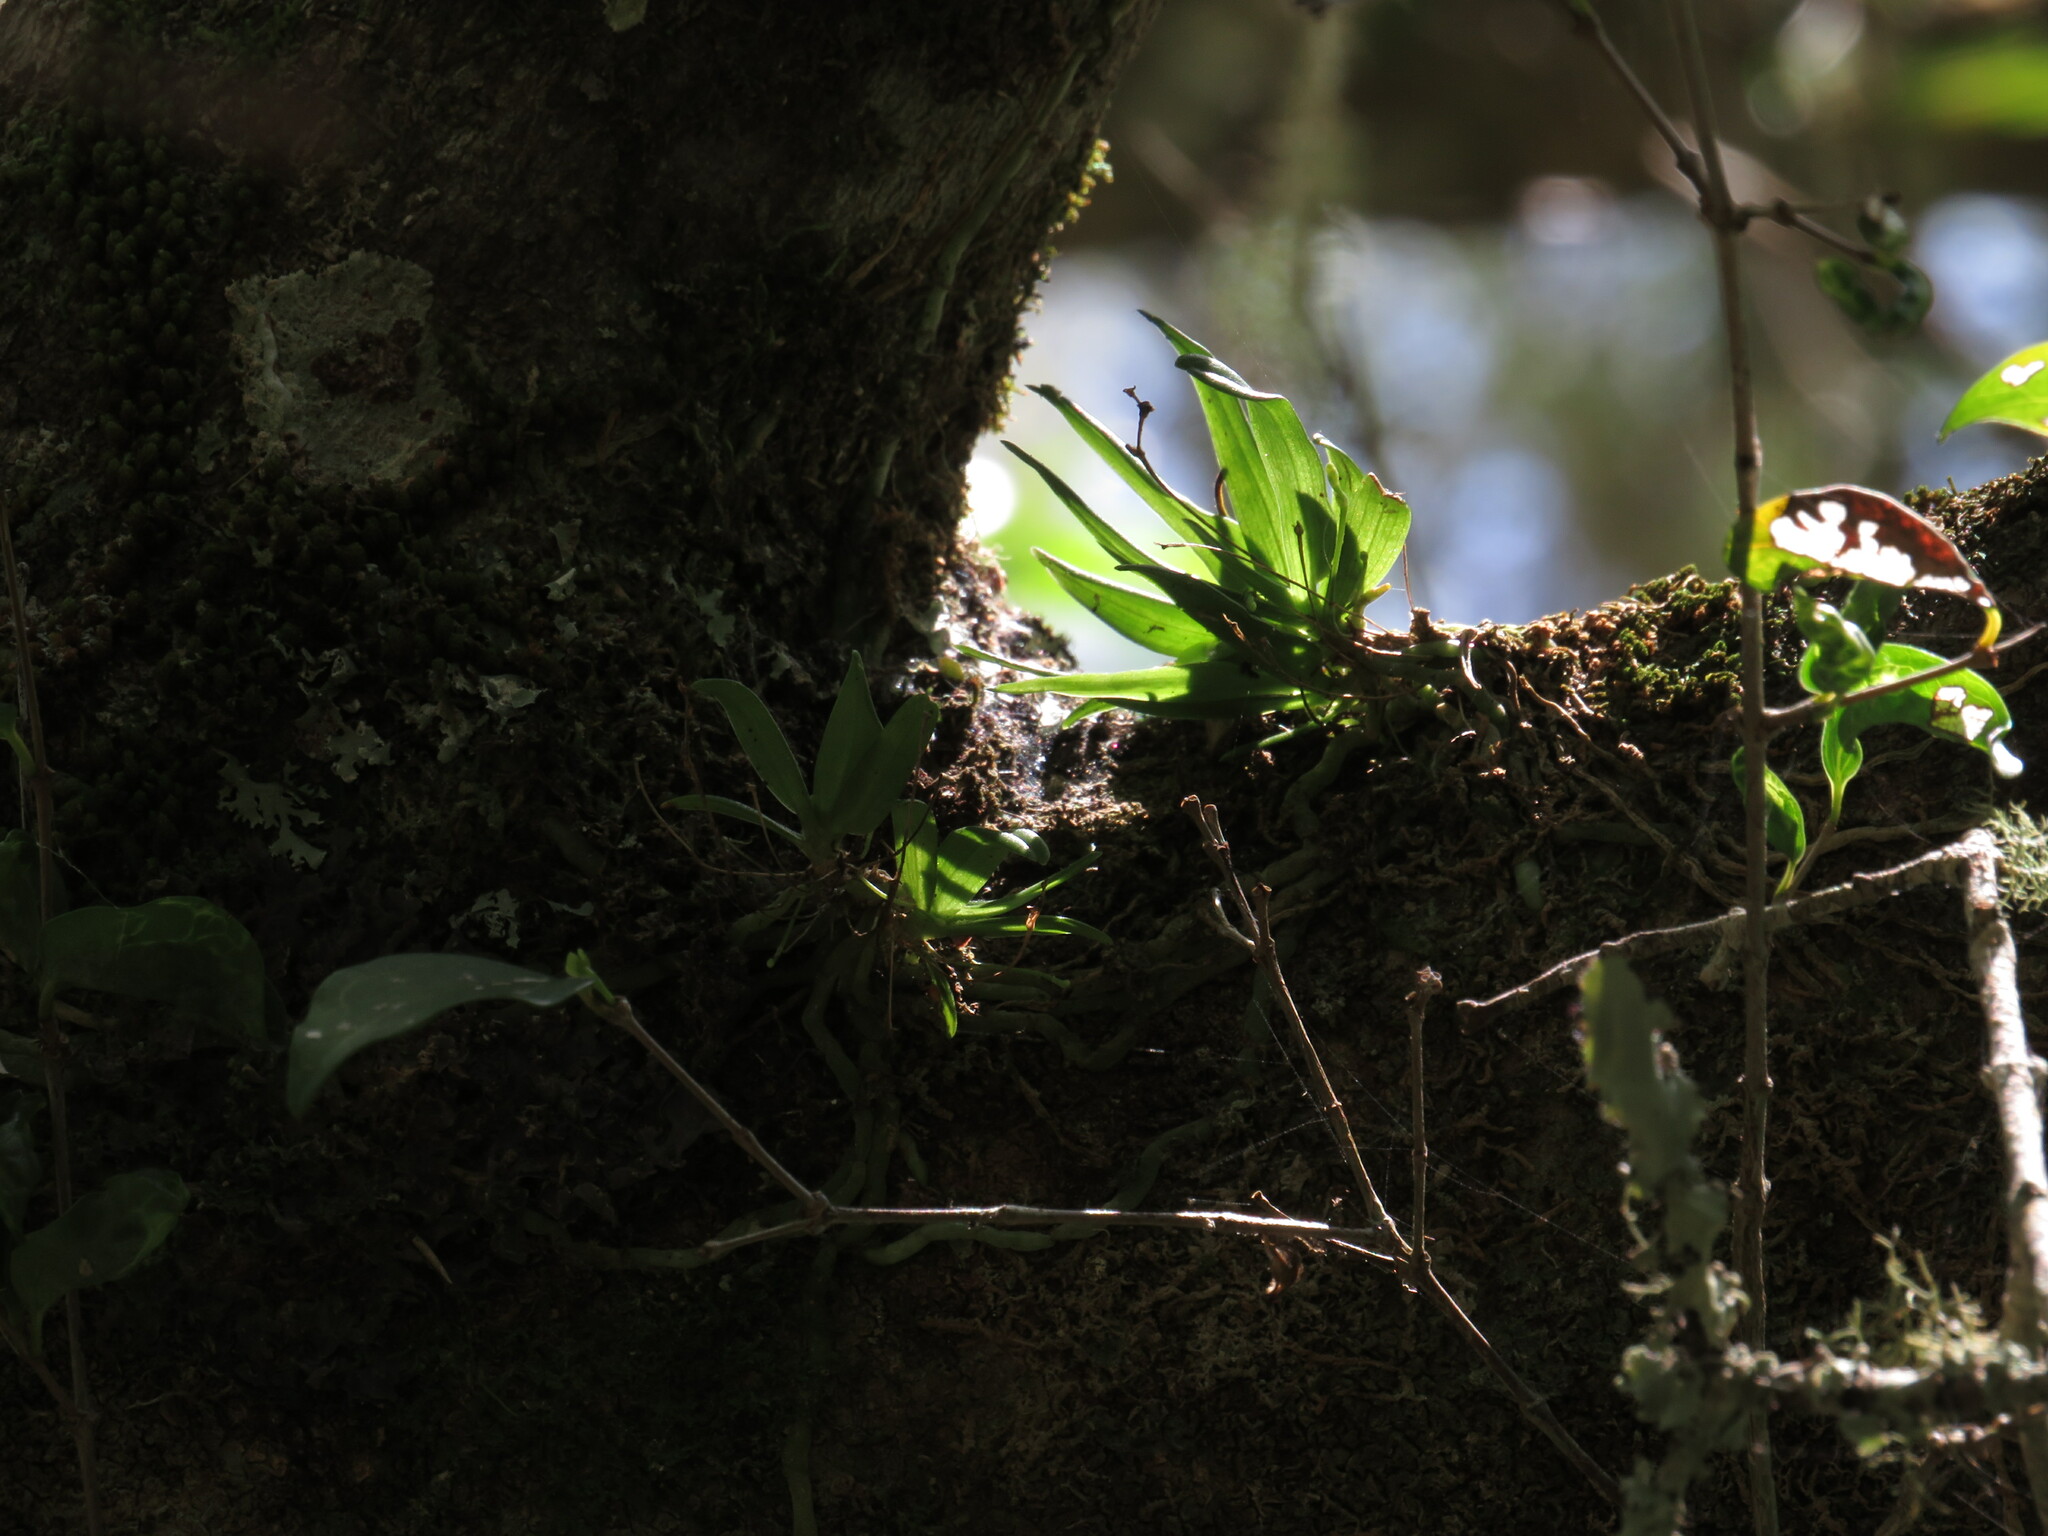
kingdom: Plantae
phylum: Tracheophyta
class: Liliopsida
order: Asparagales
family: Orchidaceae
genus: Angraecum
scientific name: Angraecum sacciferum
